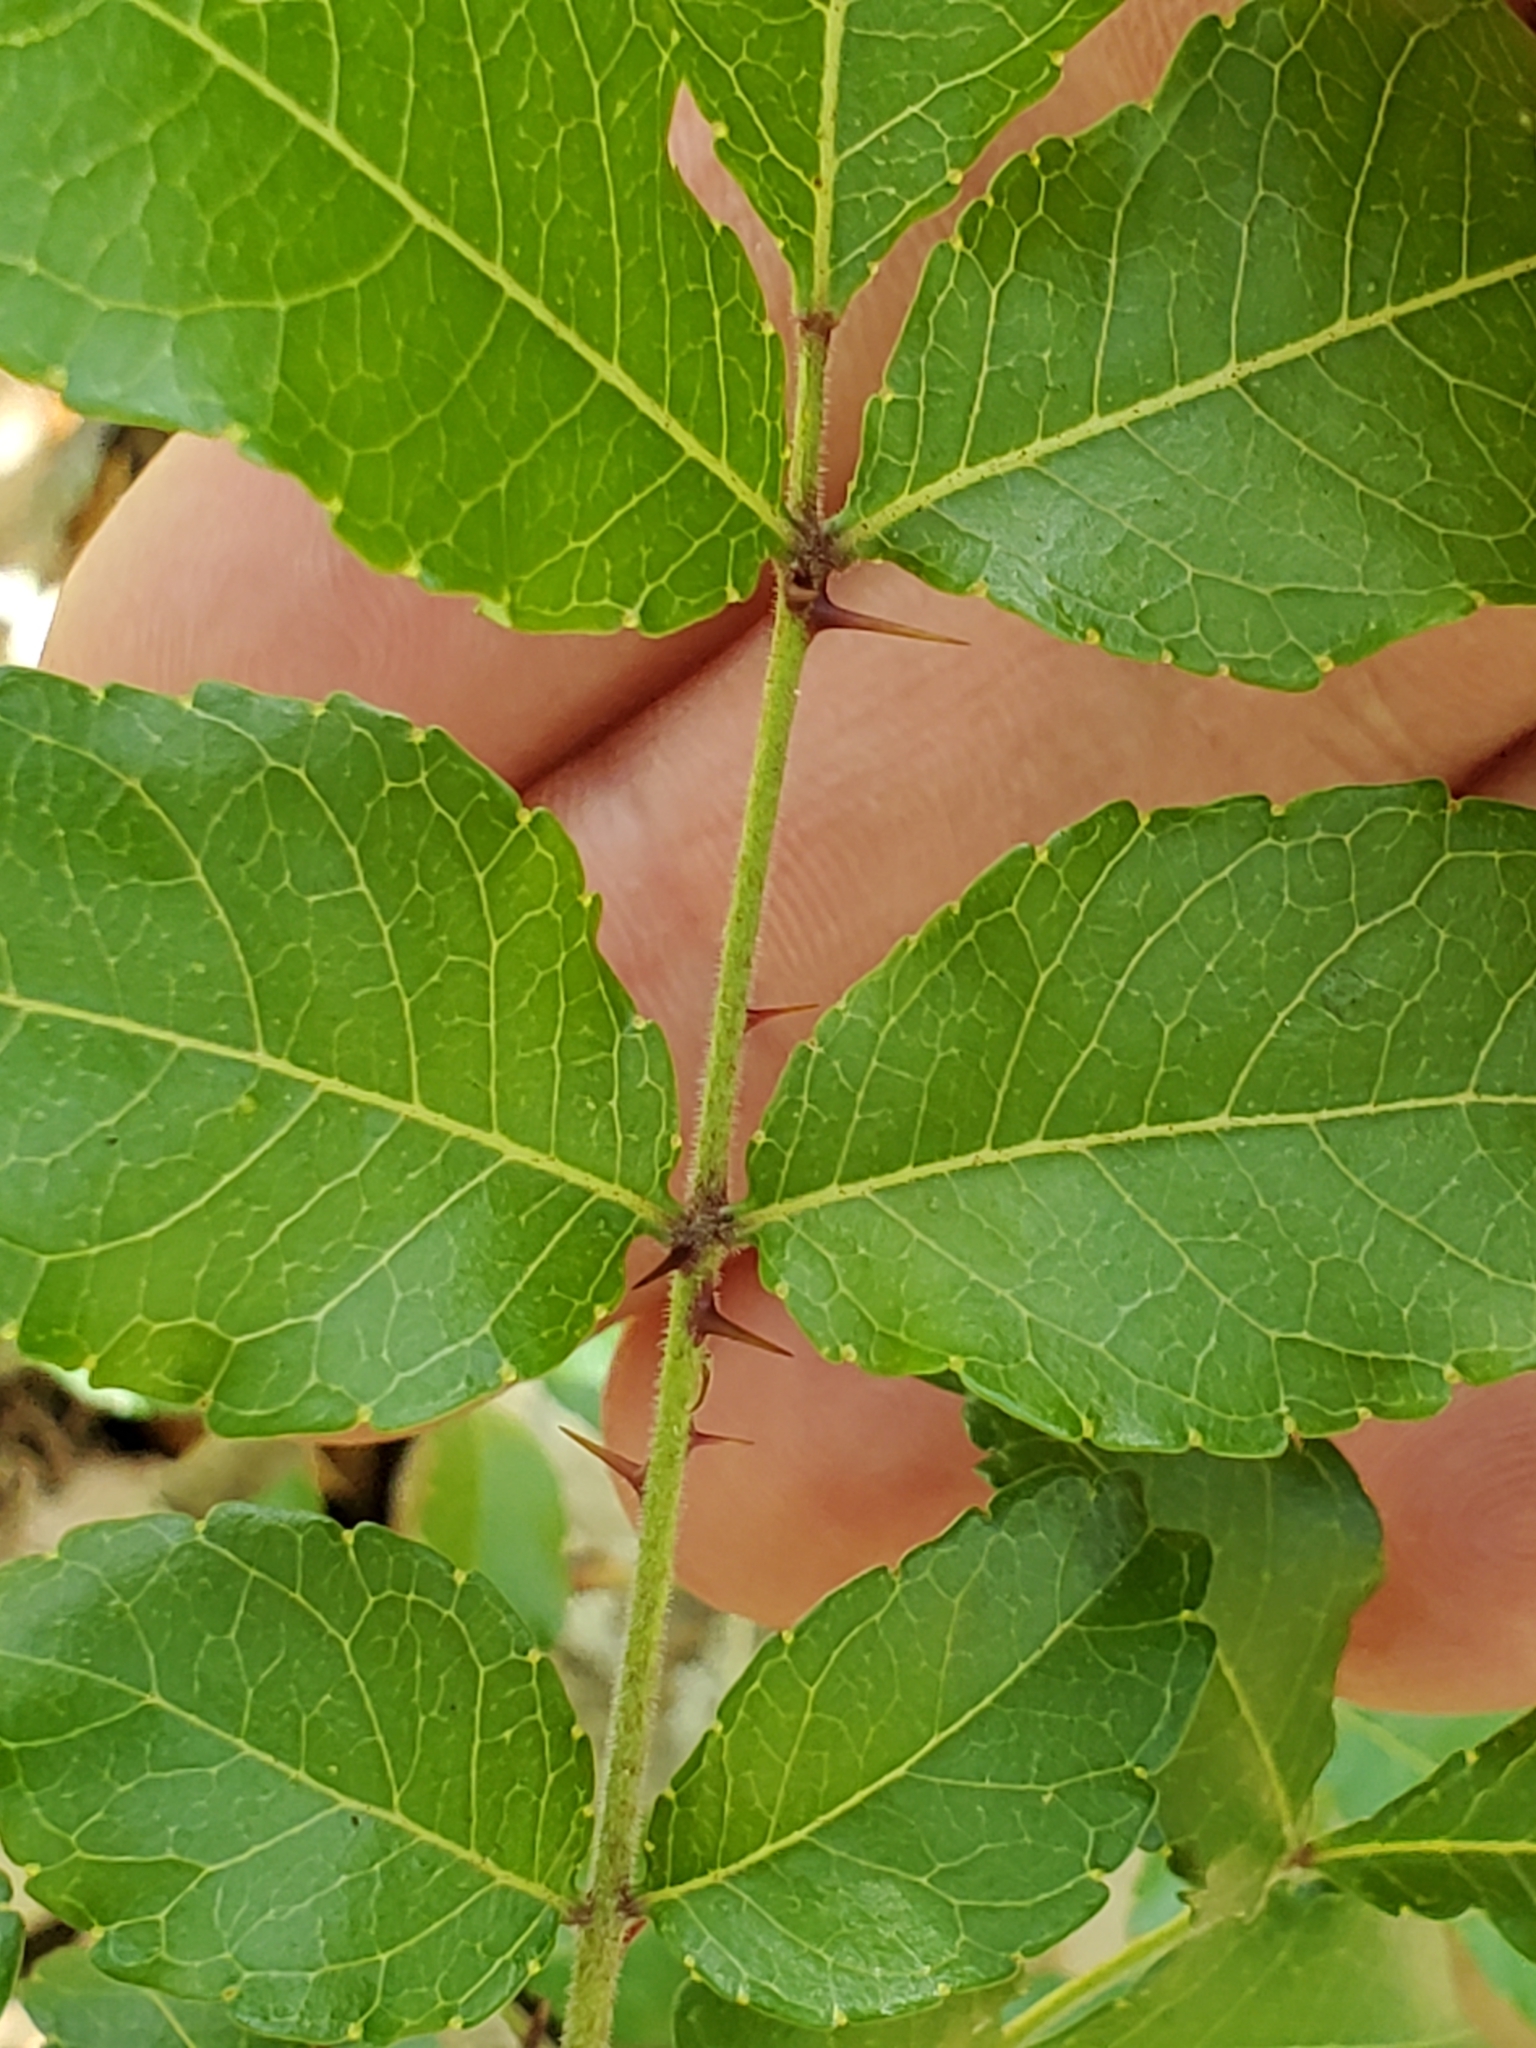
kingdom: Plantae
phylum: Tracheophyta
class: Magnoliopsida
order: Sapindales
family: Rutaceae
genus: Zanthoxylum
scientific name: Zanthoxylum clava-herculis
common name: Hercules'-club
